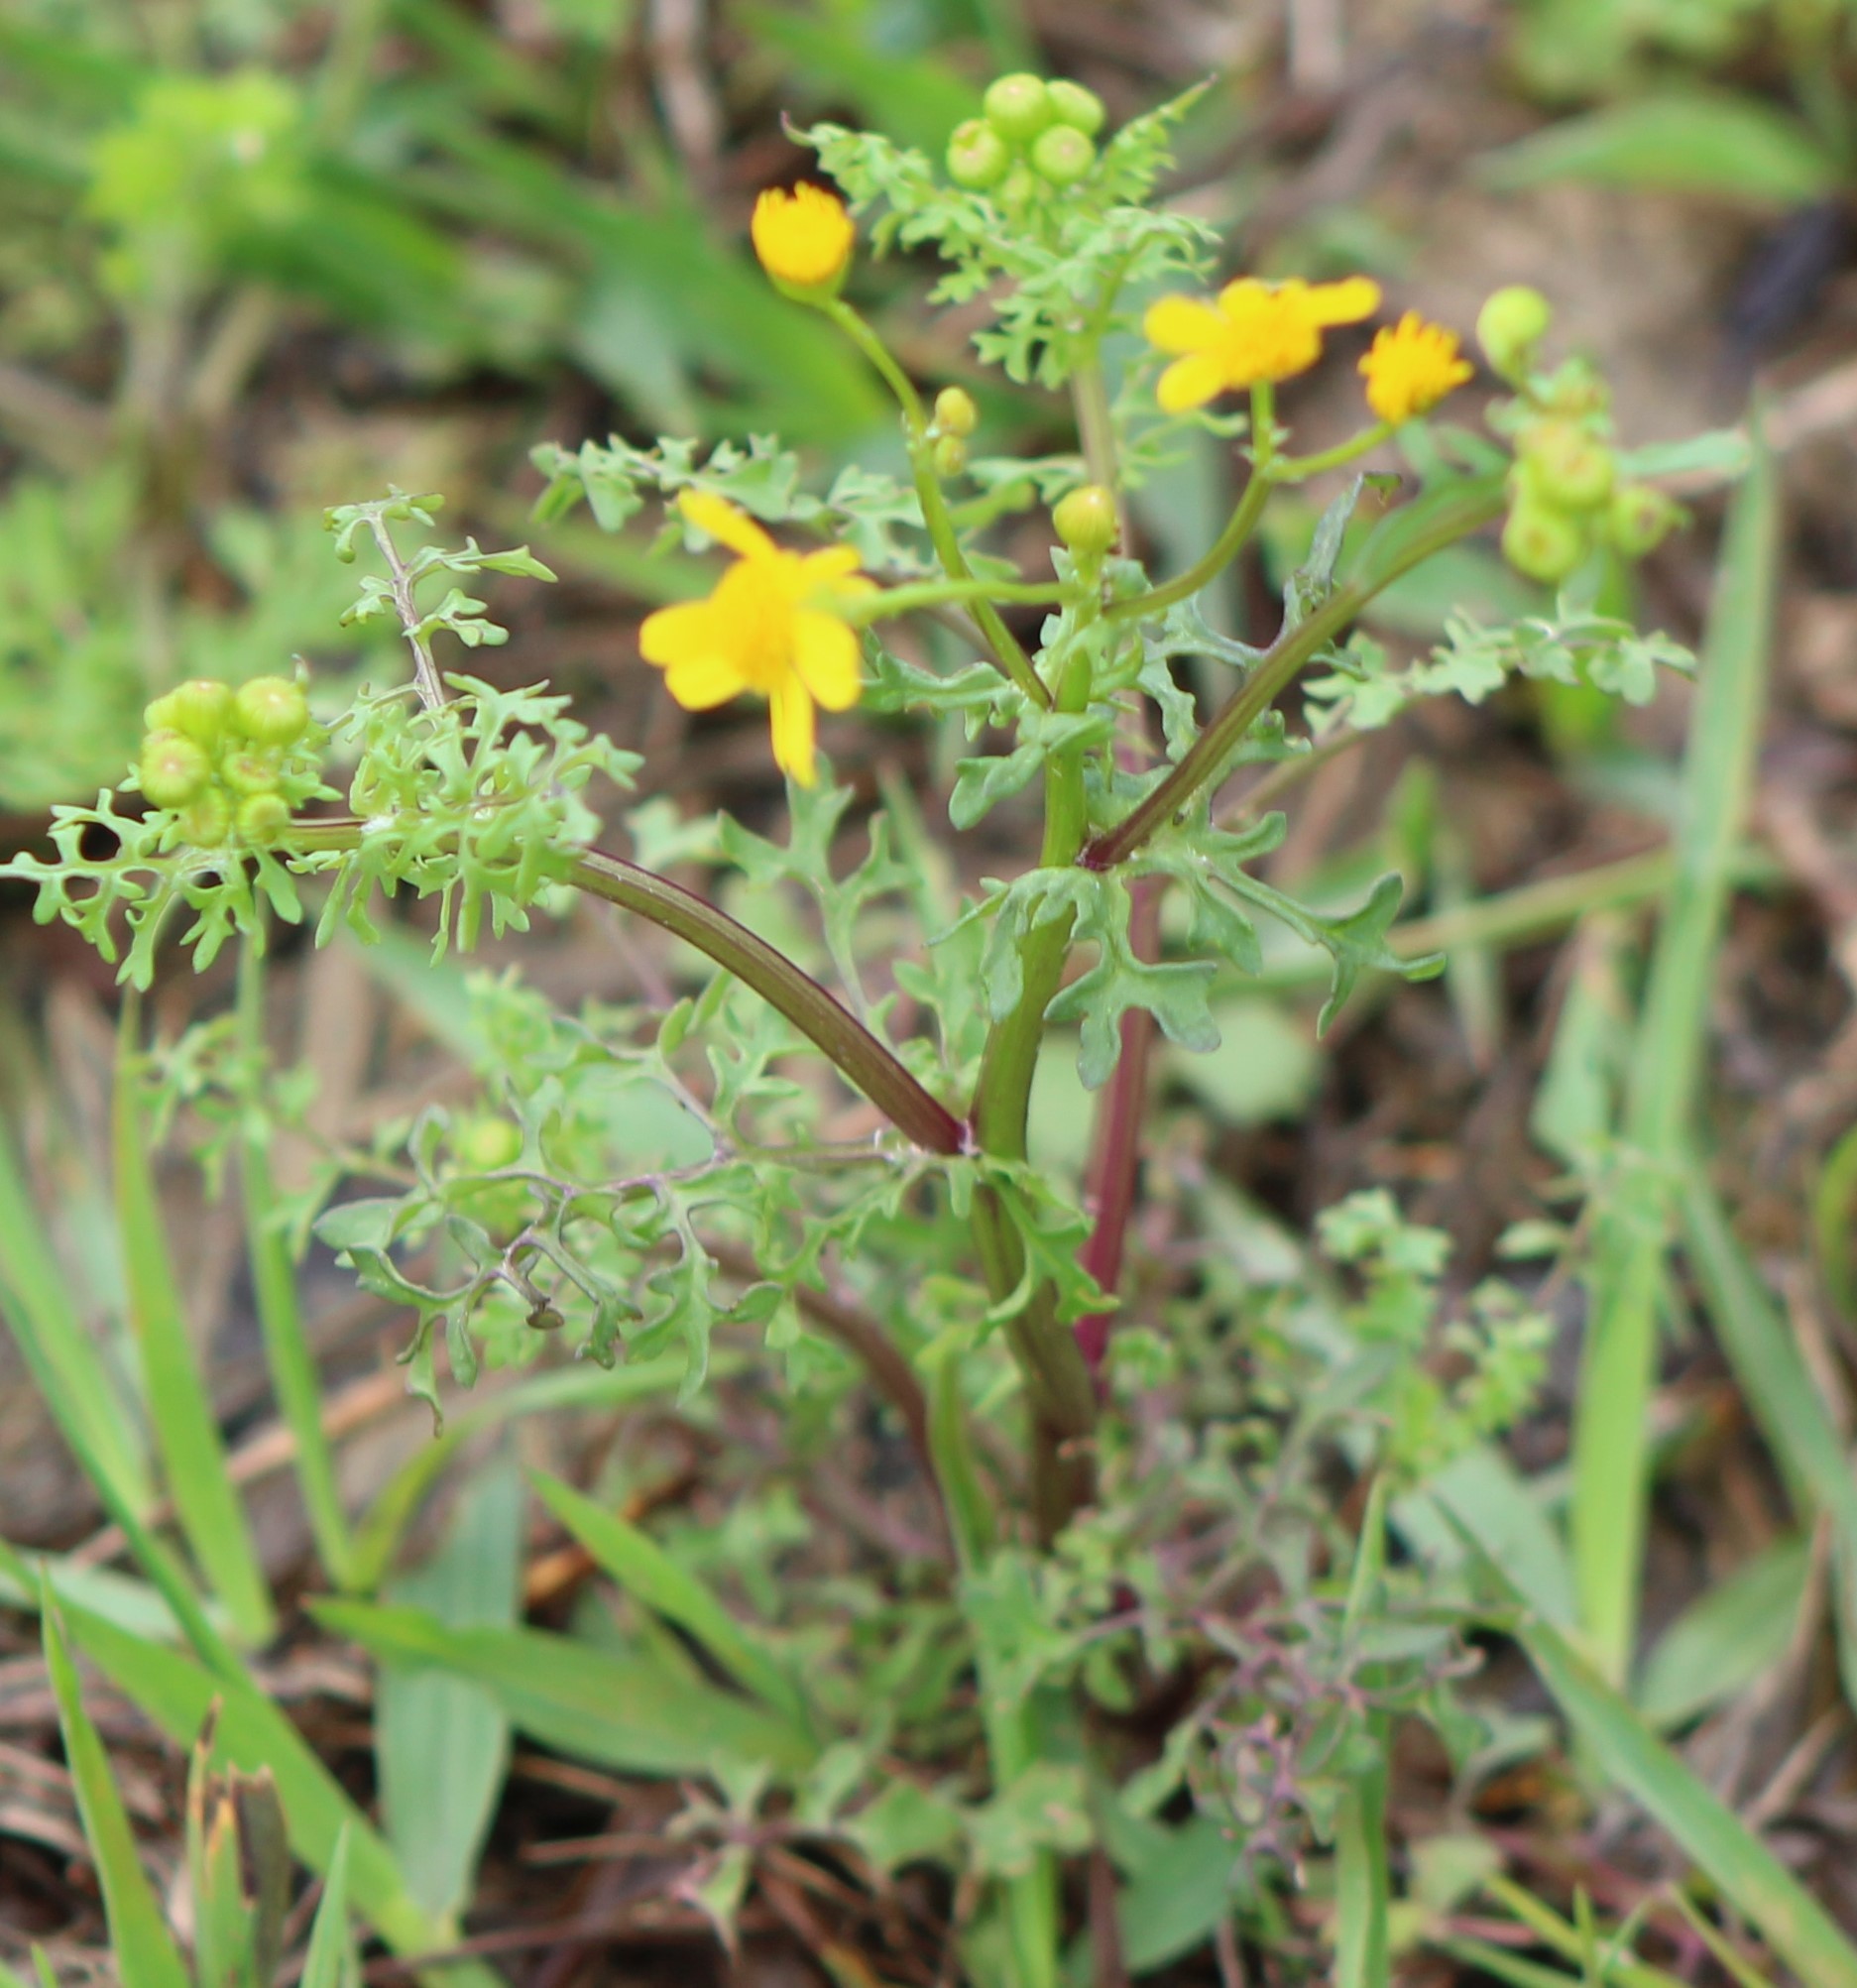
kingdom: Plantae
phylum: Tracheophyta
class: Magnoliopsida
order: Asterales
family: Asteraceae
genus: Packera
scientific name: Packera tampicana
